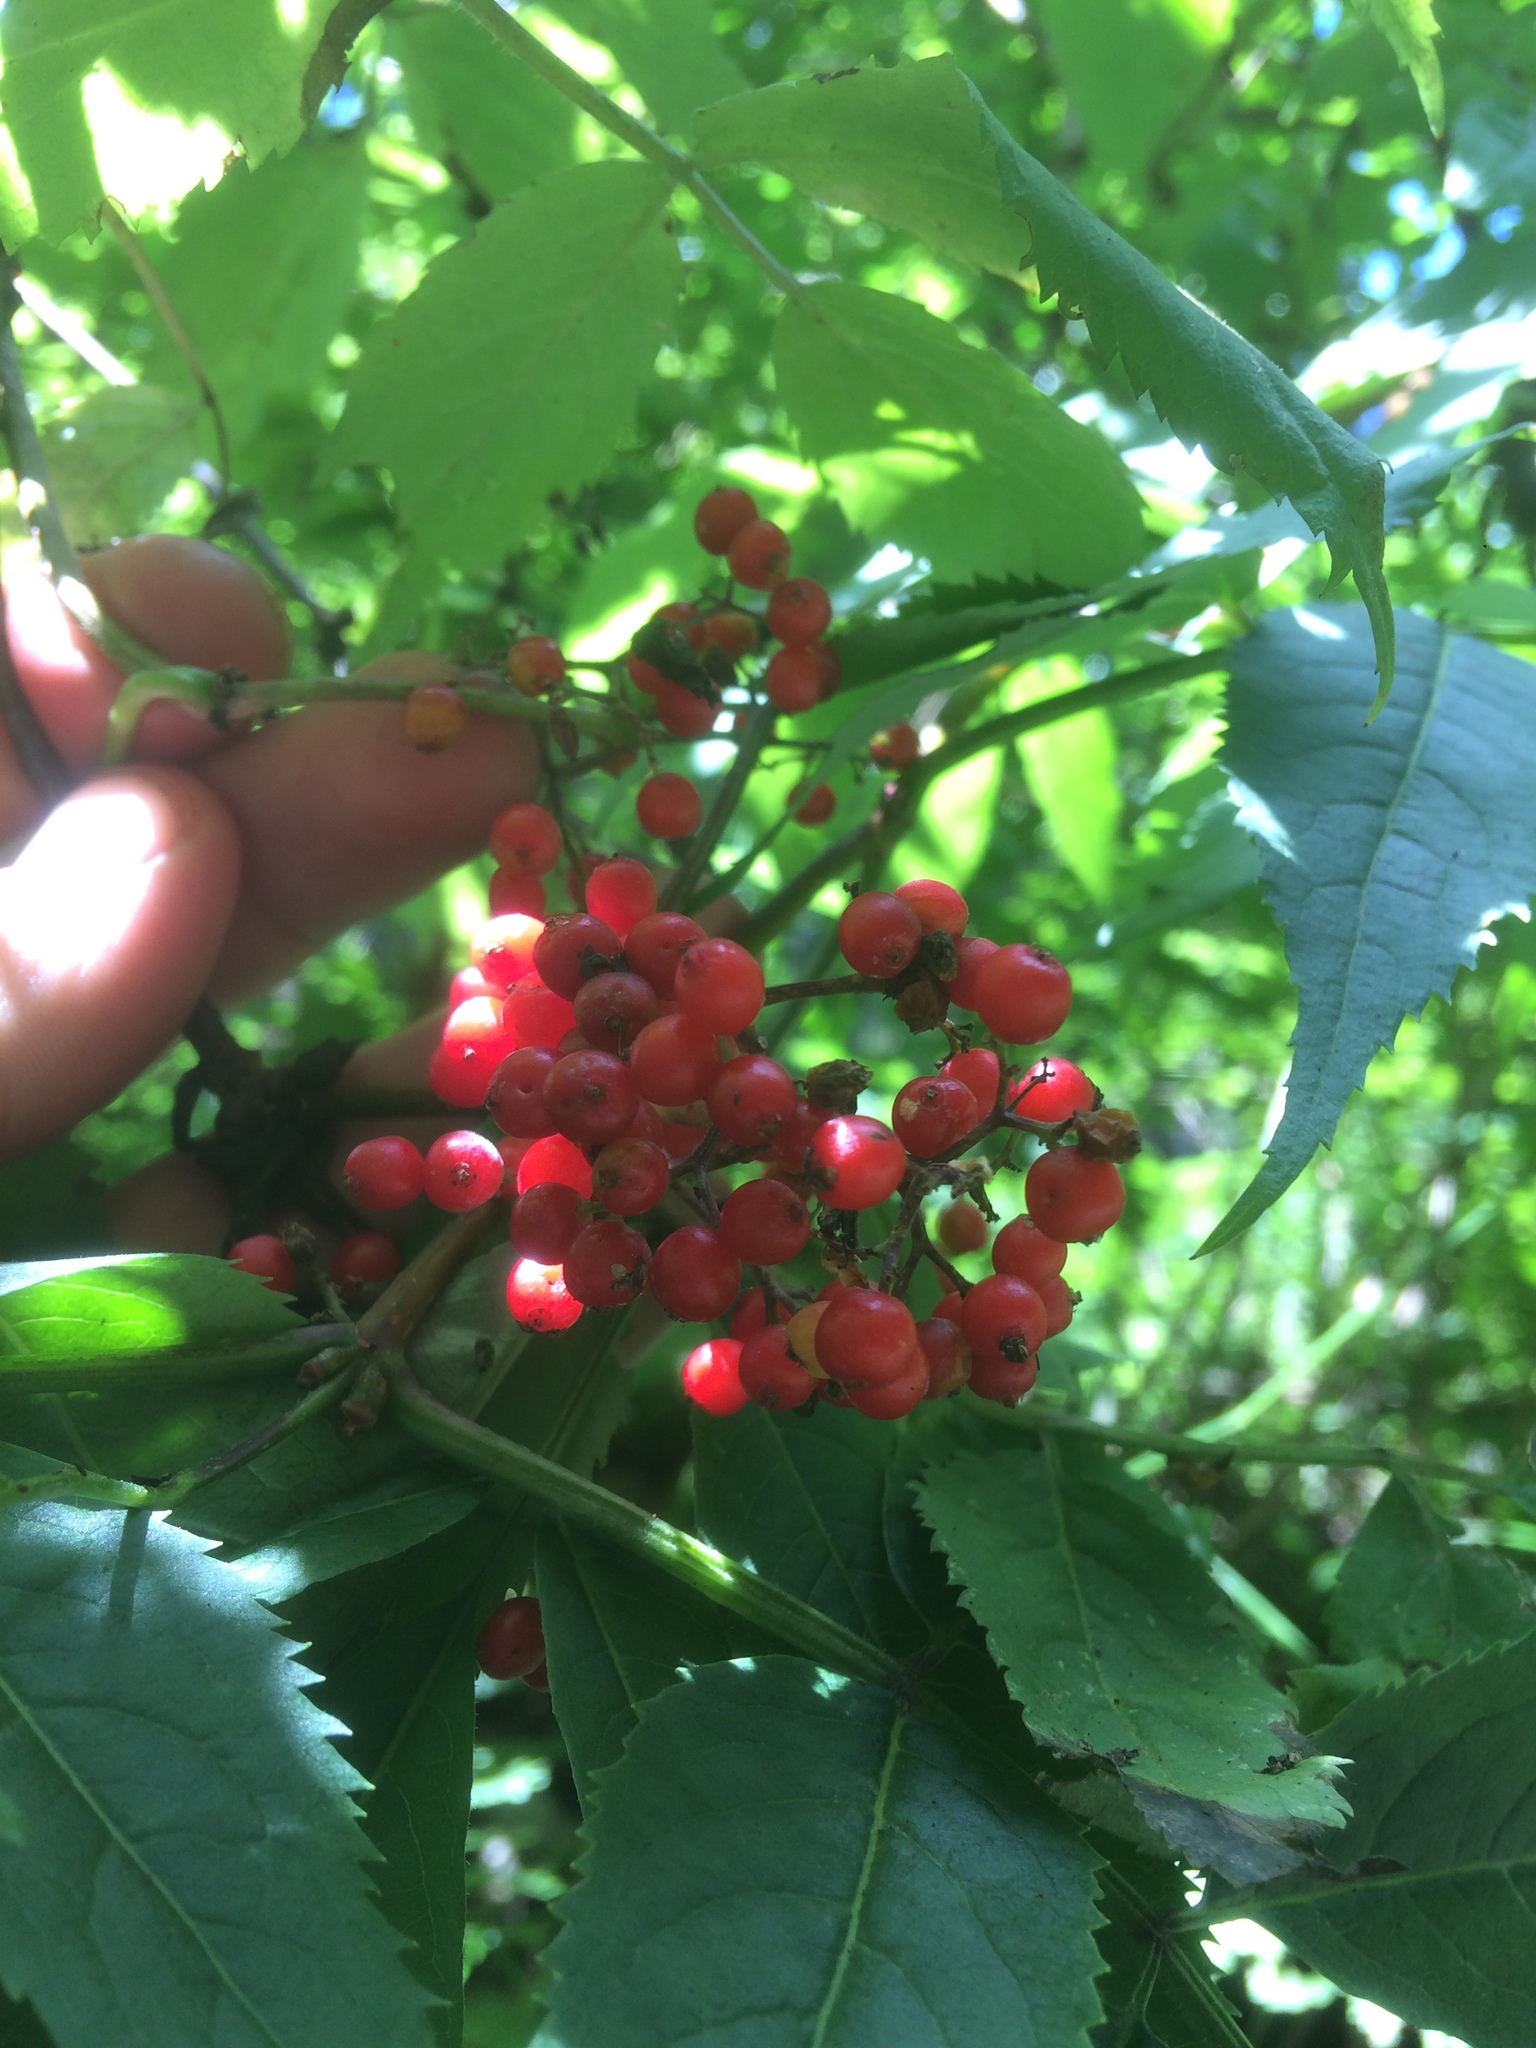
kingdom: Plantae
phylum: Tracheophyta
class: Magnoliopsida
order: Dipsacales
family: Viburnaceae
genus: Sambucus
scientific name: Sambucus racemosa
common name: Red-berried elder
